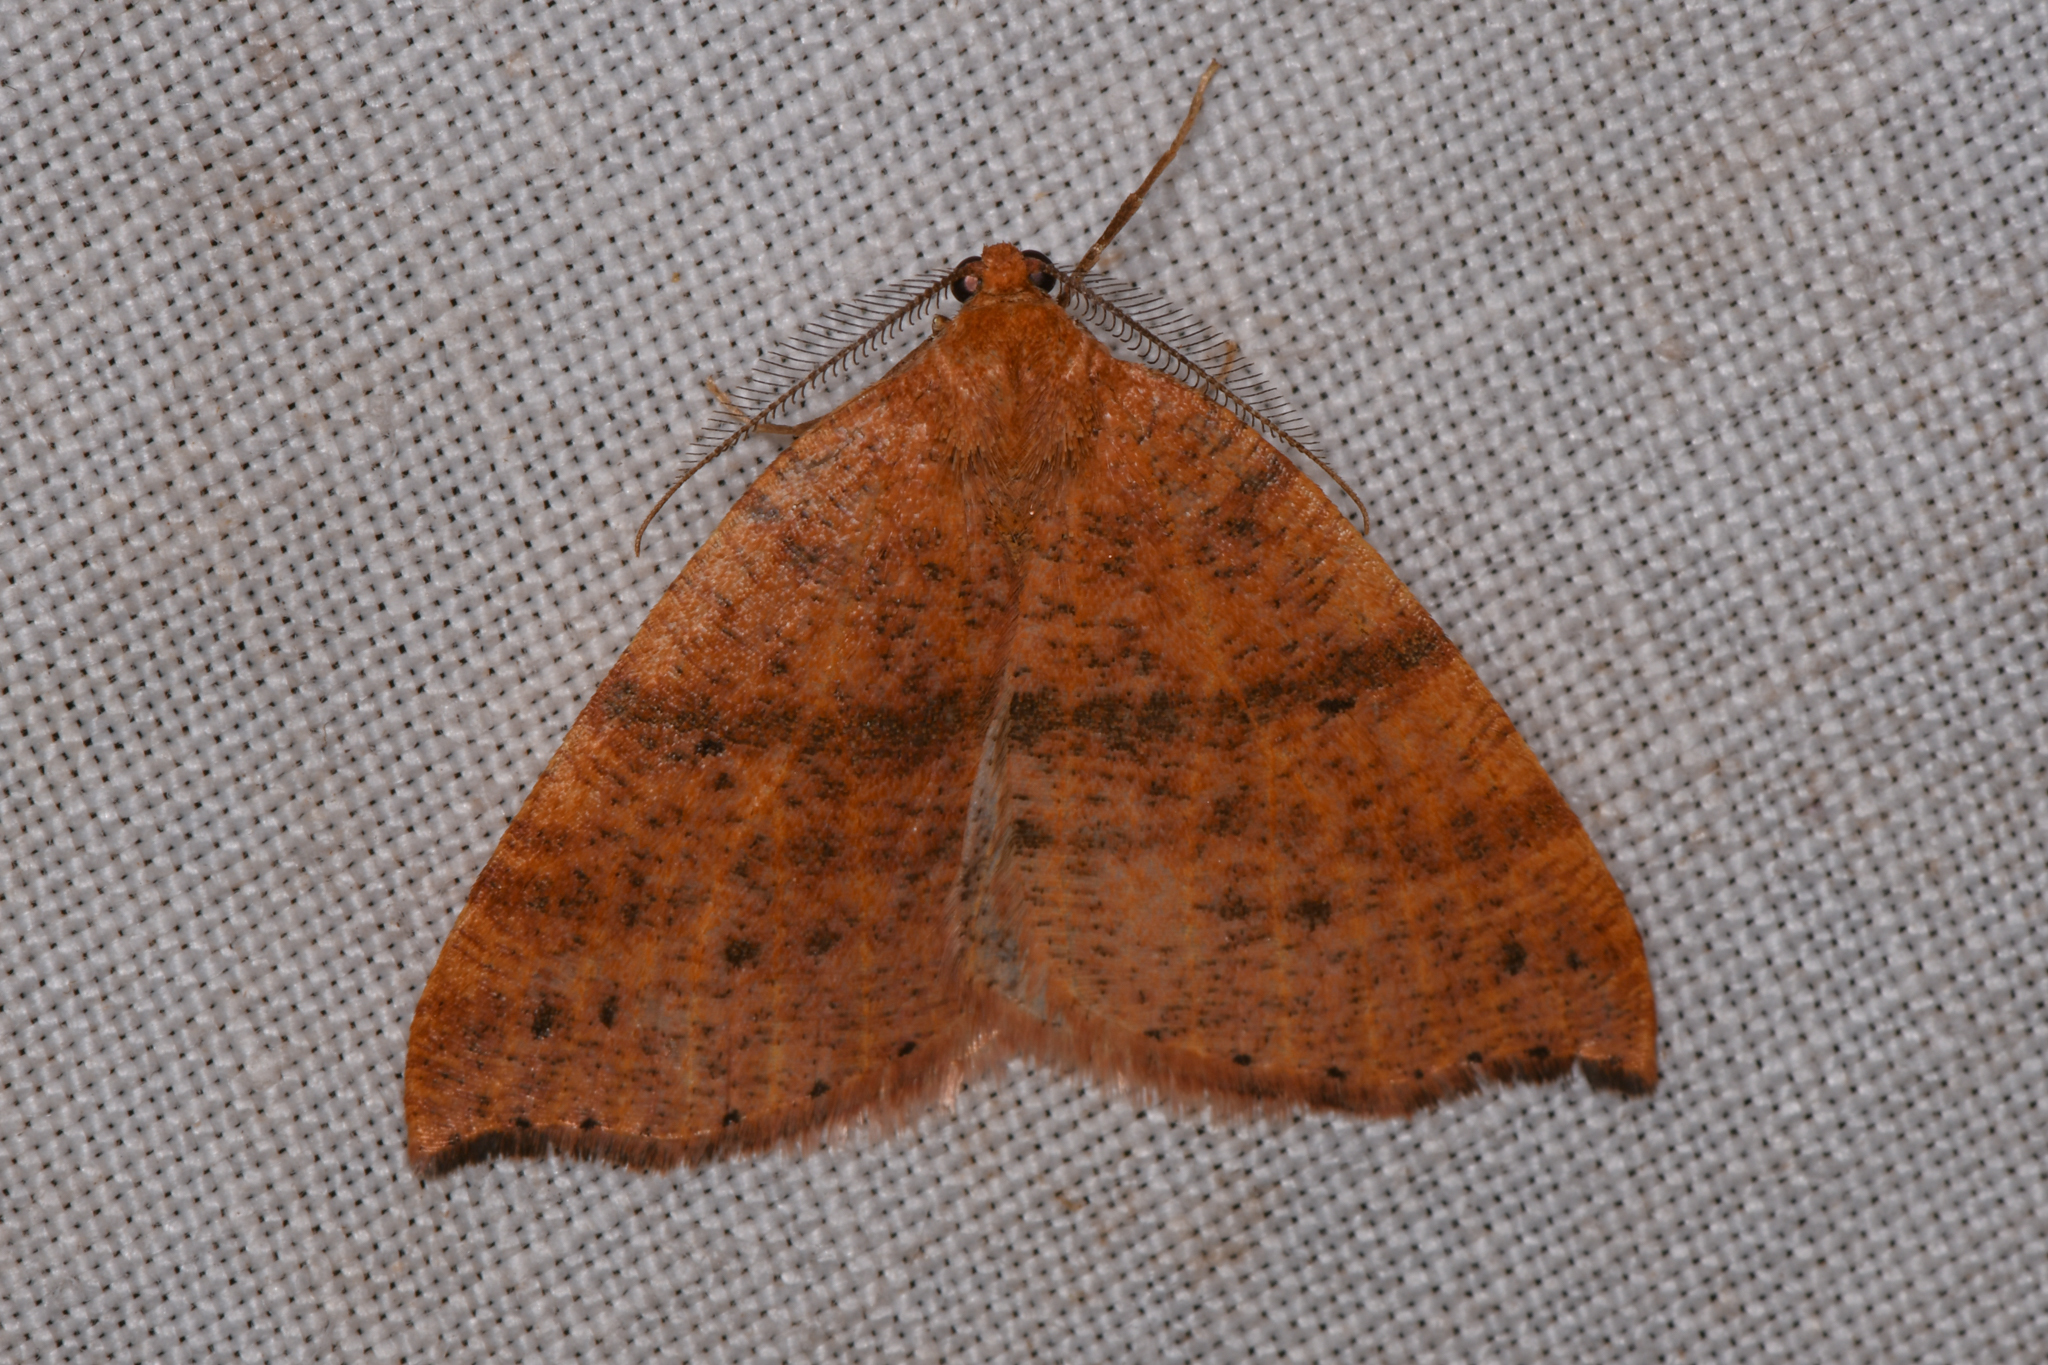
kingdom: Animalia
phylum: Arthropoda
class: Insecta
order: Lepidoptera
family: Geometridae
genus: Drepanulatrix
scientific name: Drepanulatrix falcataria
